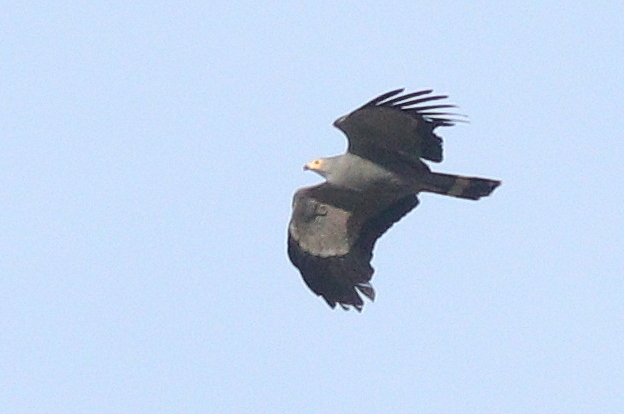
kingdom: Animalia
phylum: Chordata
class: Aves
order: Accipitriformes
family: Accipitridae
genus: Polyboroides
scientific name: Polyboroides typus
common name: African harrier-hawk
